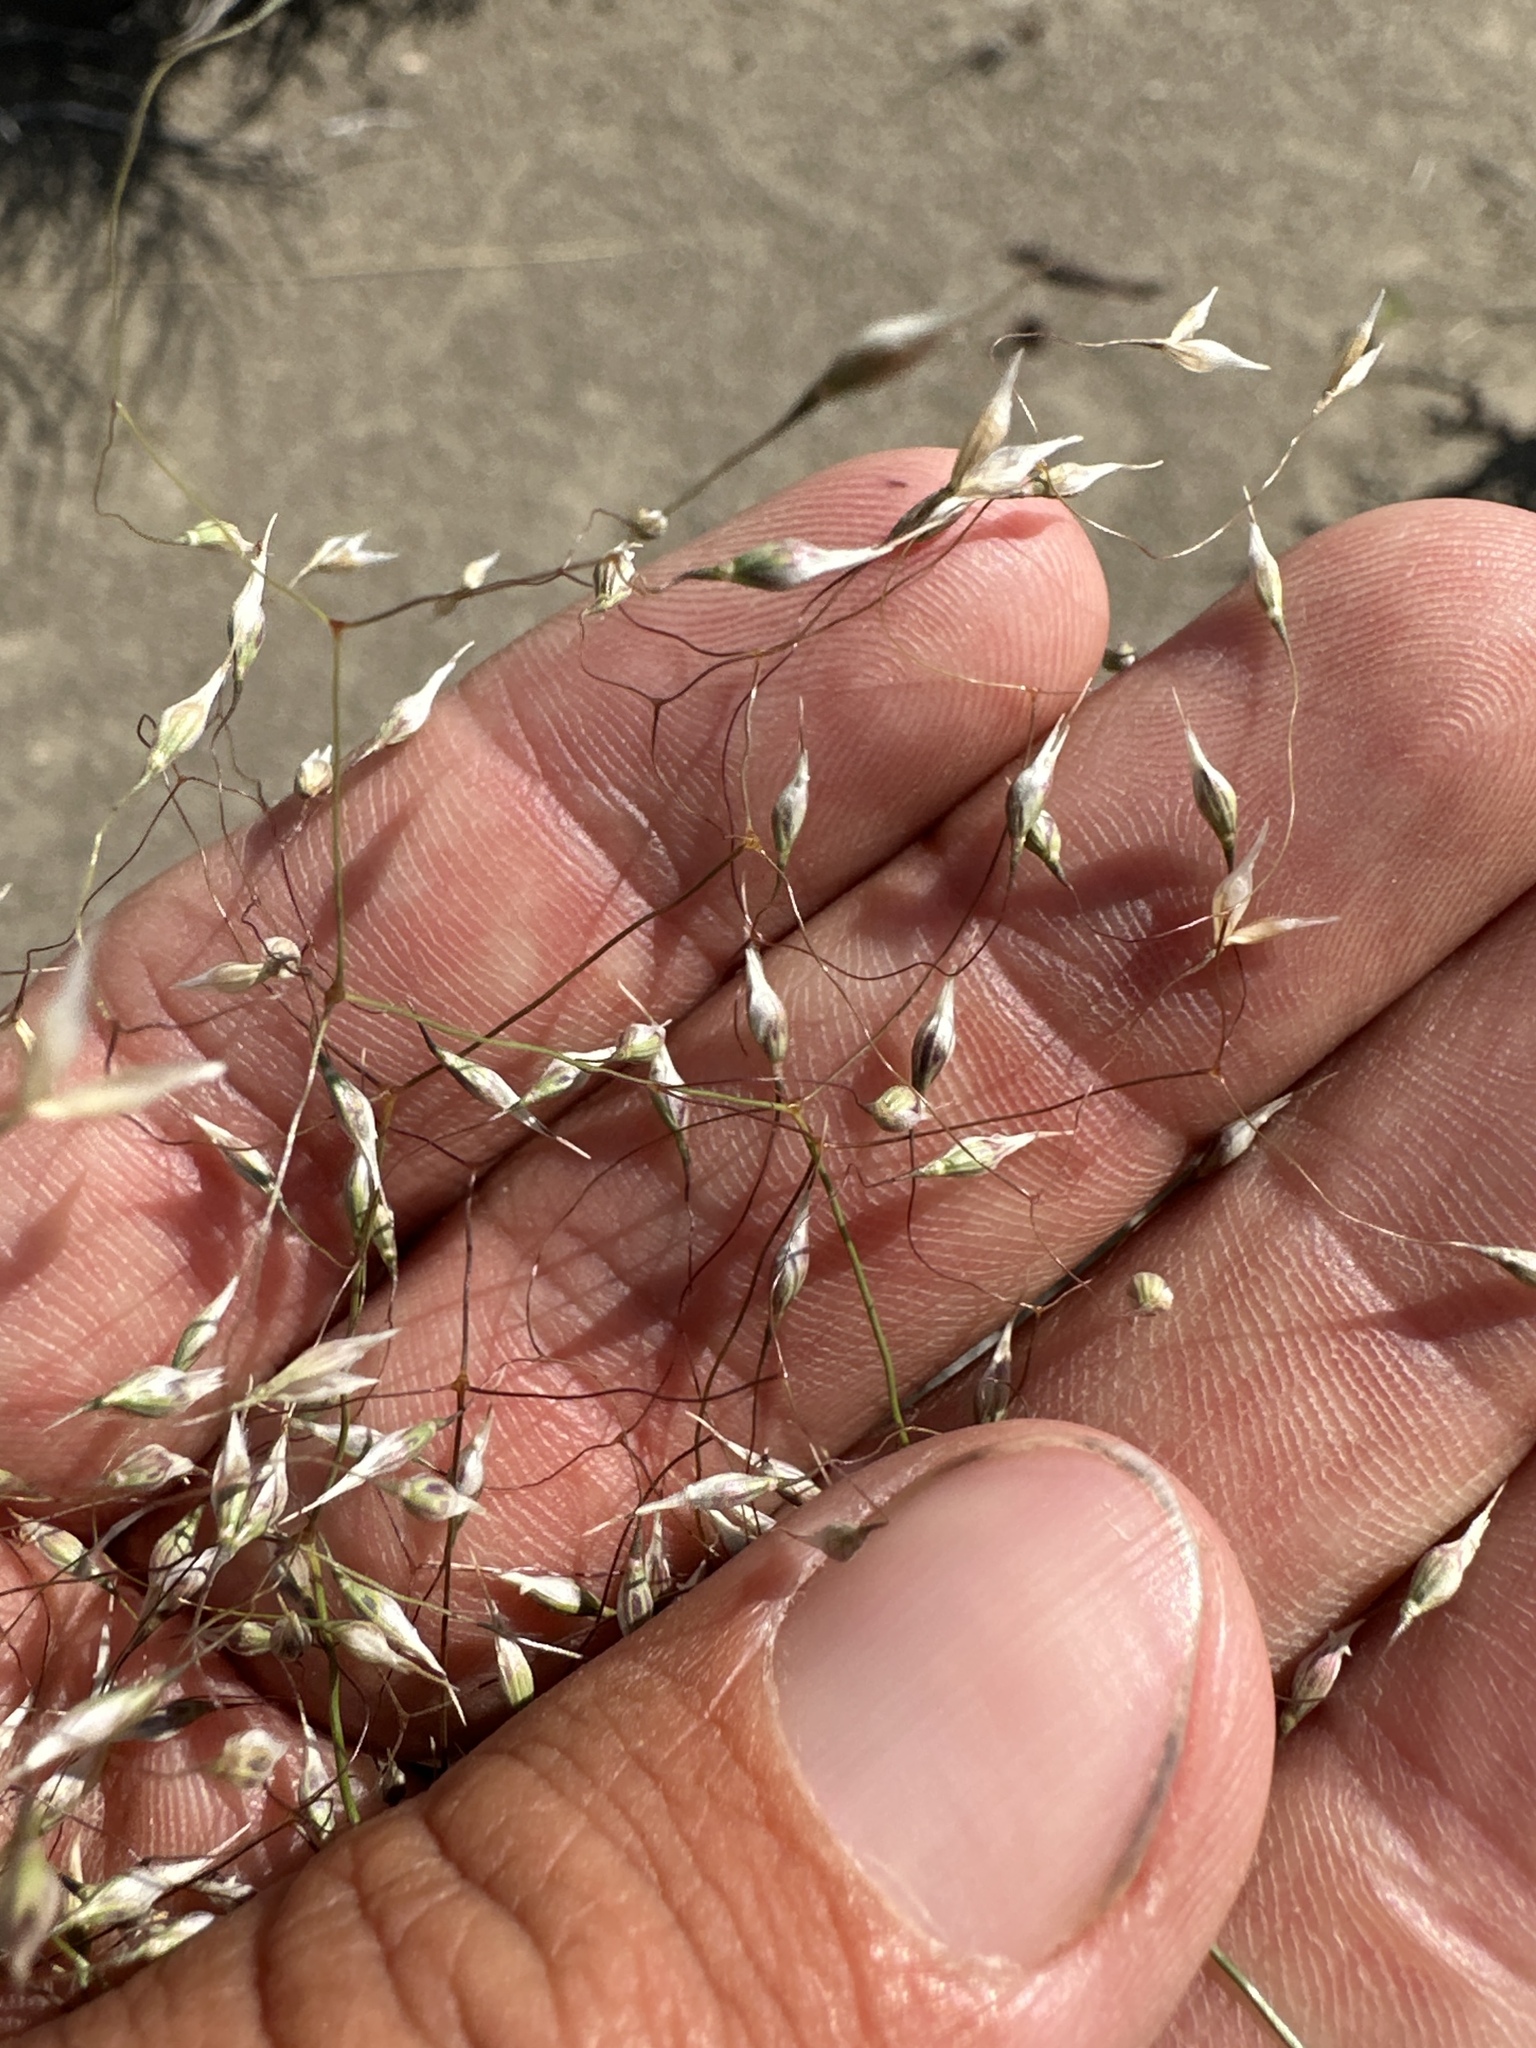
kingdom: Plantae
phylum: Tracheophyta
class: Liliopsida
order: Poales
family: Poaceae
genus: Eriocoma
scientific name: Eriocoma hymenoides
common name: Indian mountain ricegrass
